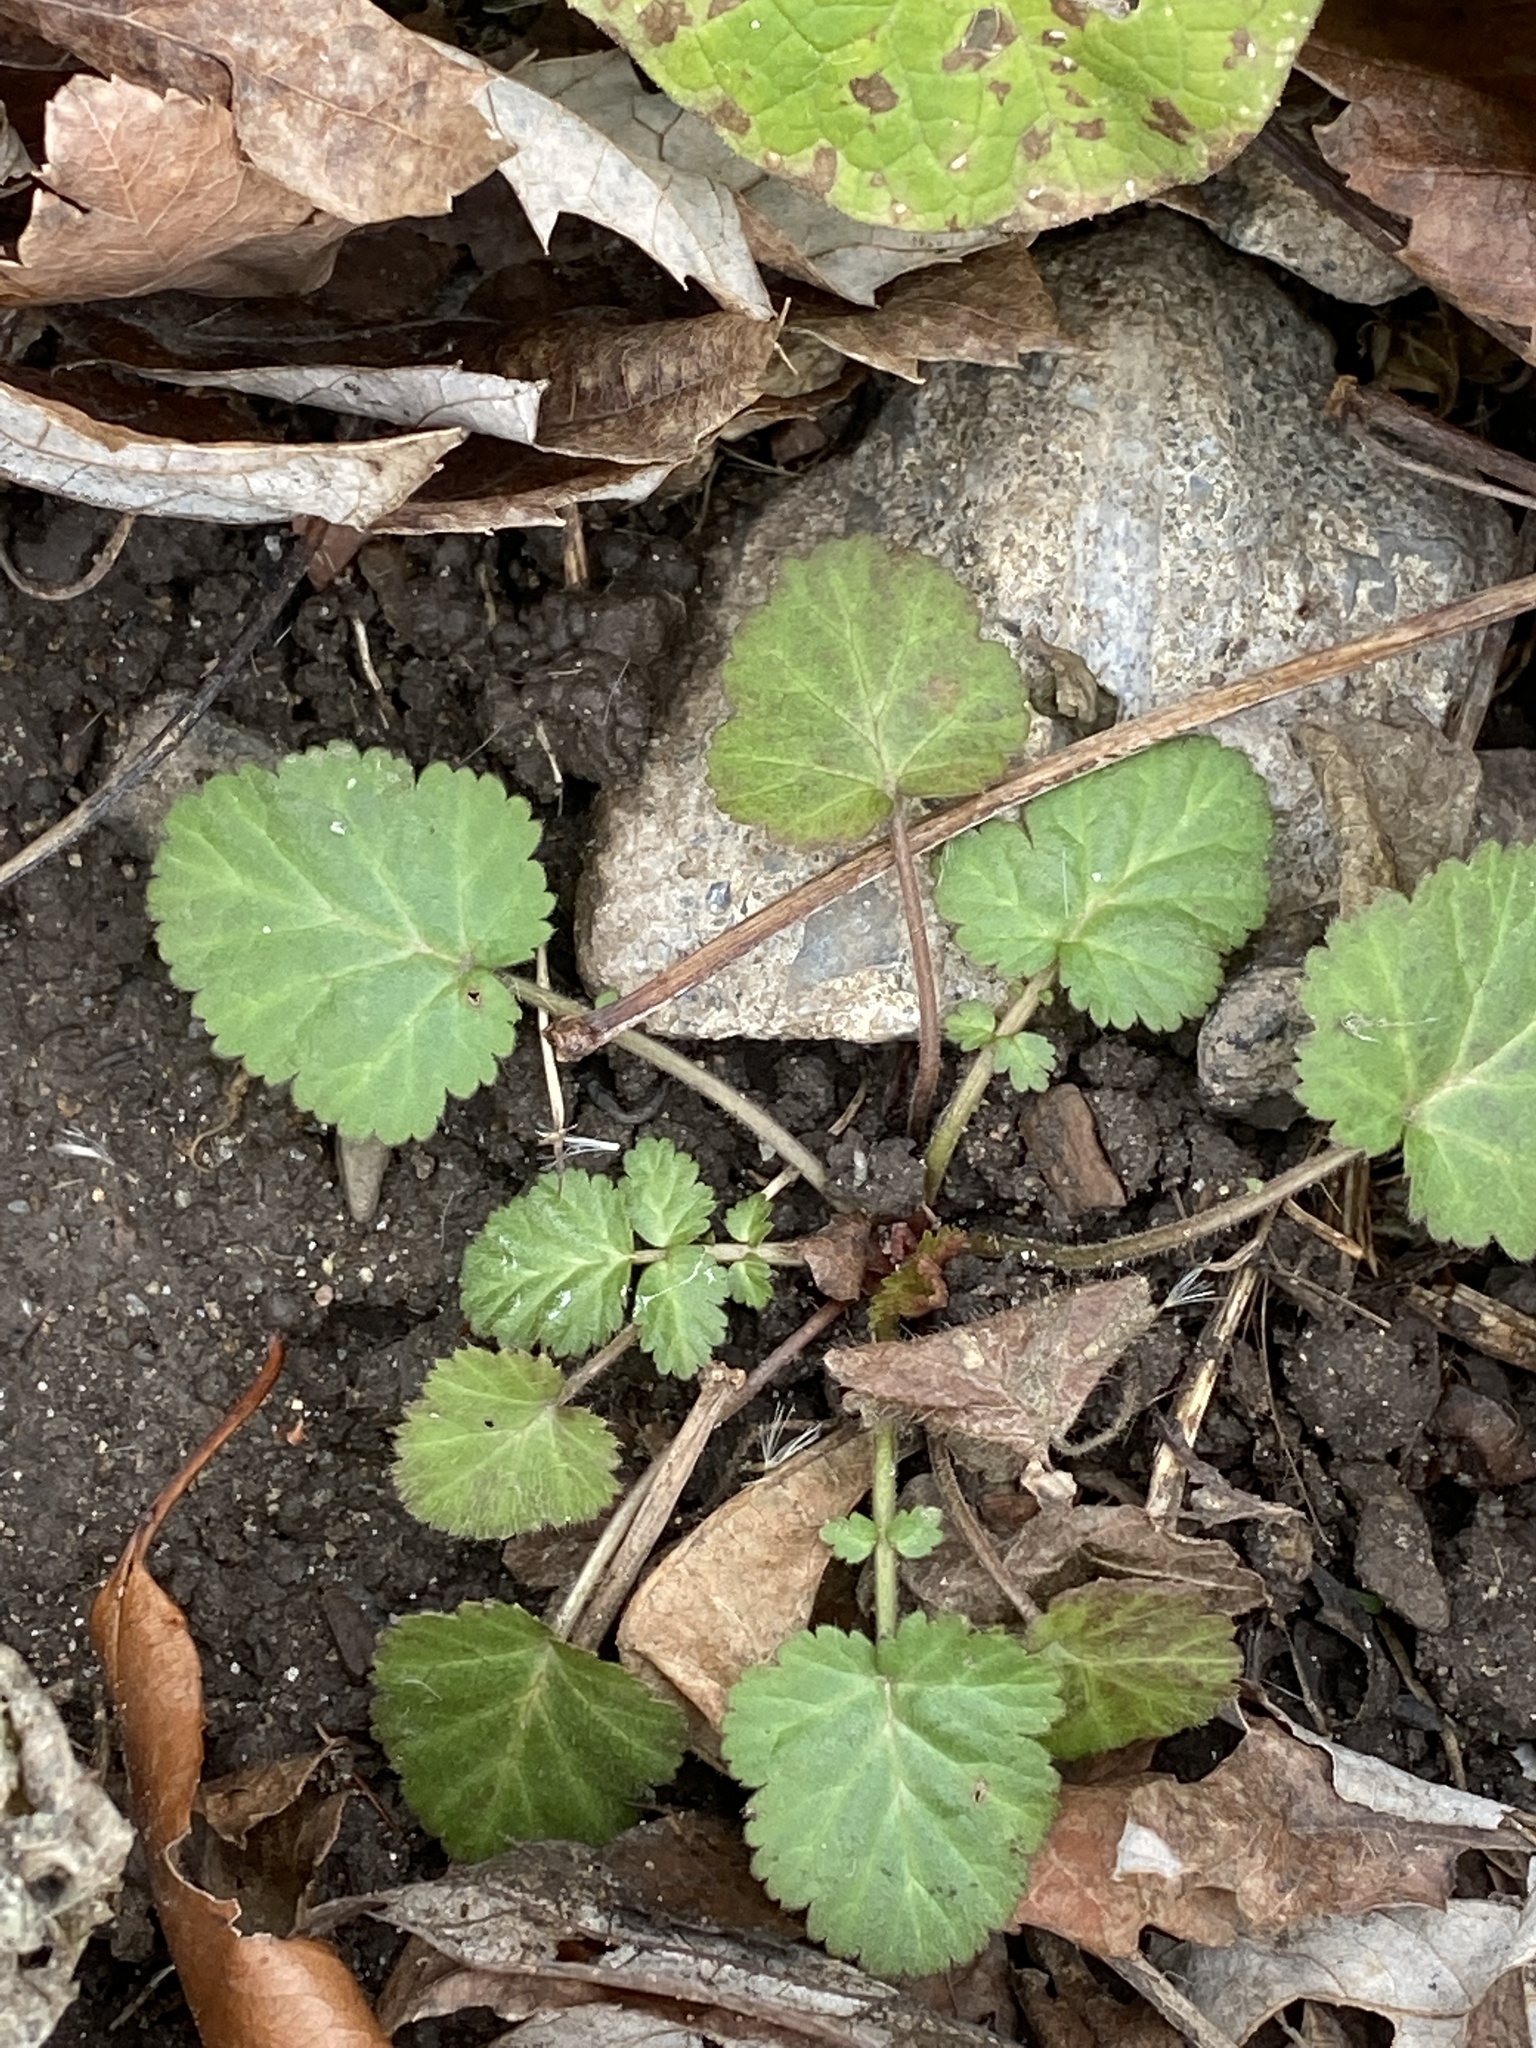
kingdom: Plantae
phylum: Tracheophyta
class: Magnoliopsida
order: Rosales
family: Rosaceae
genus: Geum
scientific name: Geum canadense
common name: White avens
